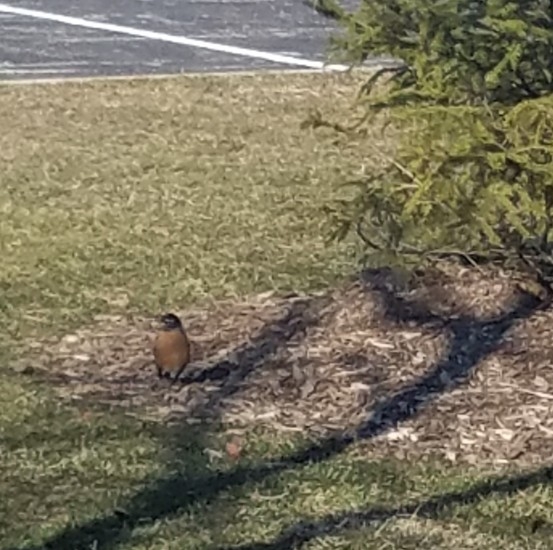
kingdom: Animalia
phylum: Chordata
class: Aves
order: Passeriformes
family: Turdidae
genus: Turdus
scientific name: Turdus migratorius
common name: American robin
